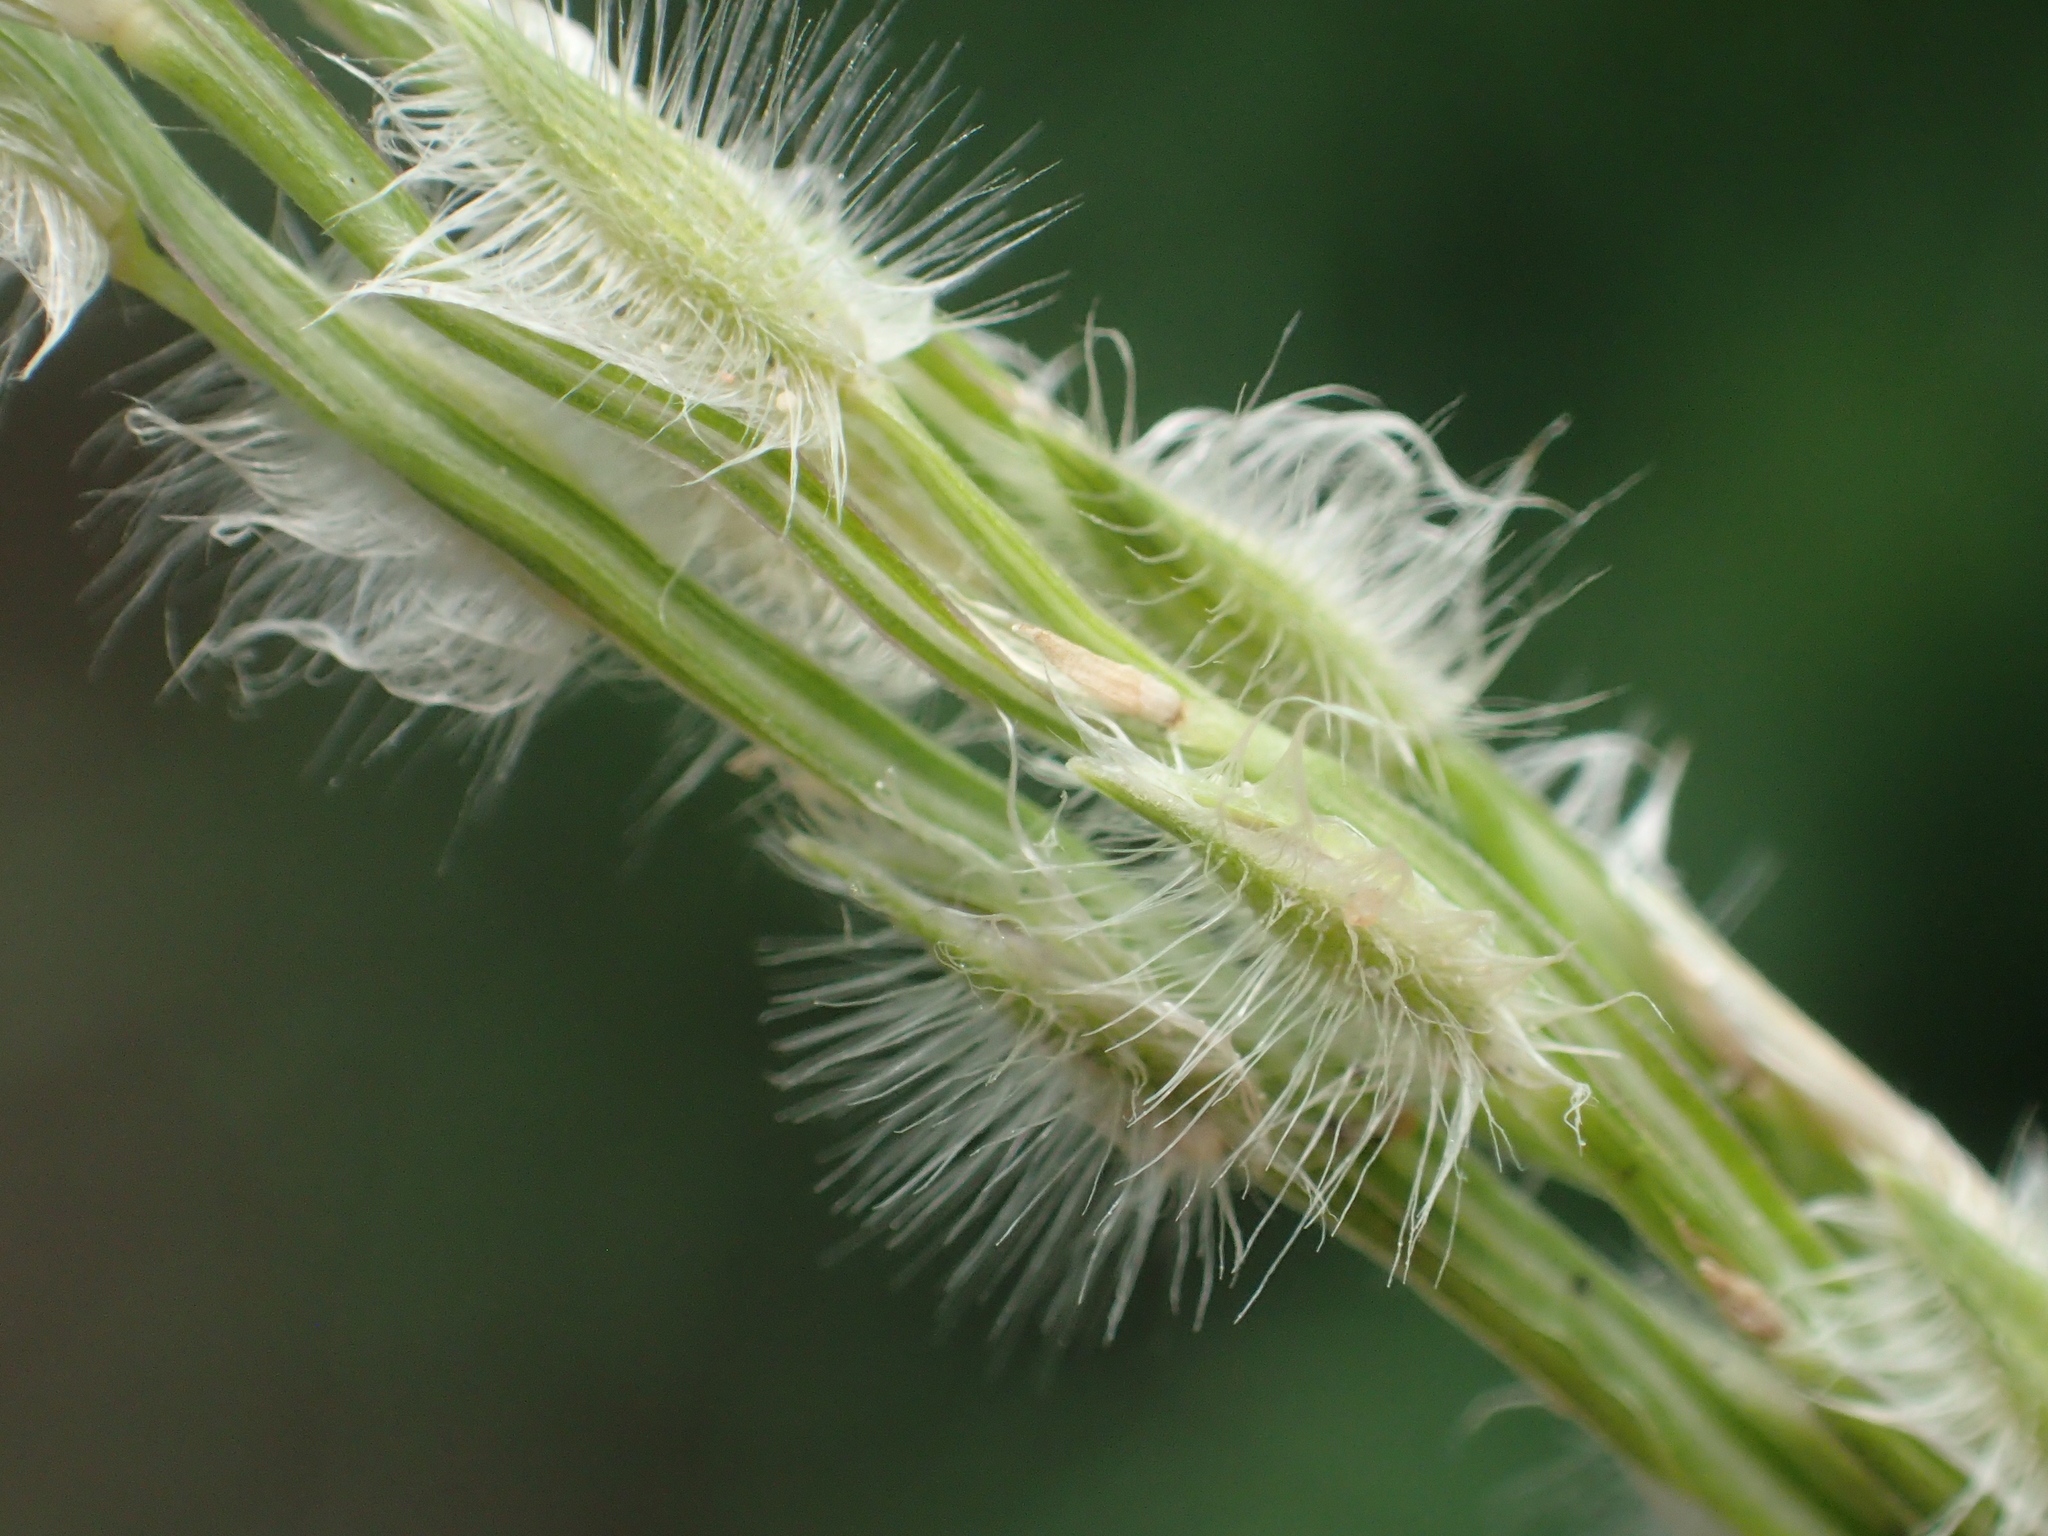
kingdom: Plantae
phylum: Tracheophyta
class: Liliopsida
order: Poales
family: Poaceae
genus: Digitaria
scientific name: Digitaria ciliaris
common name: Tropical finger-grass
